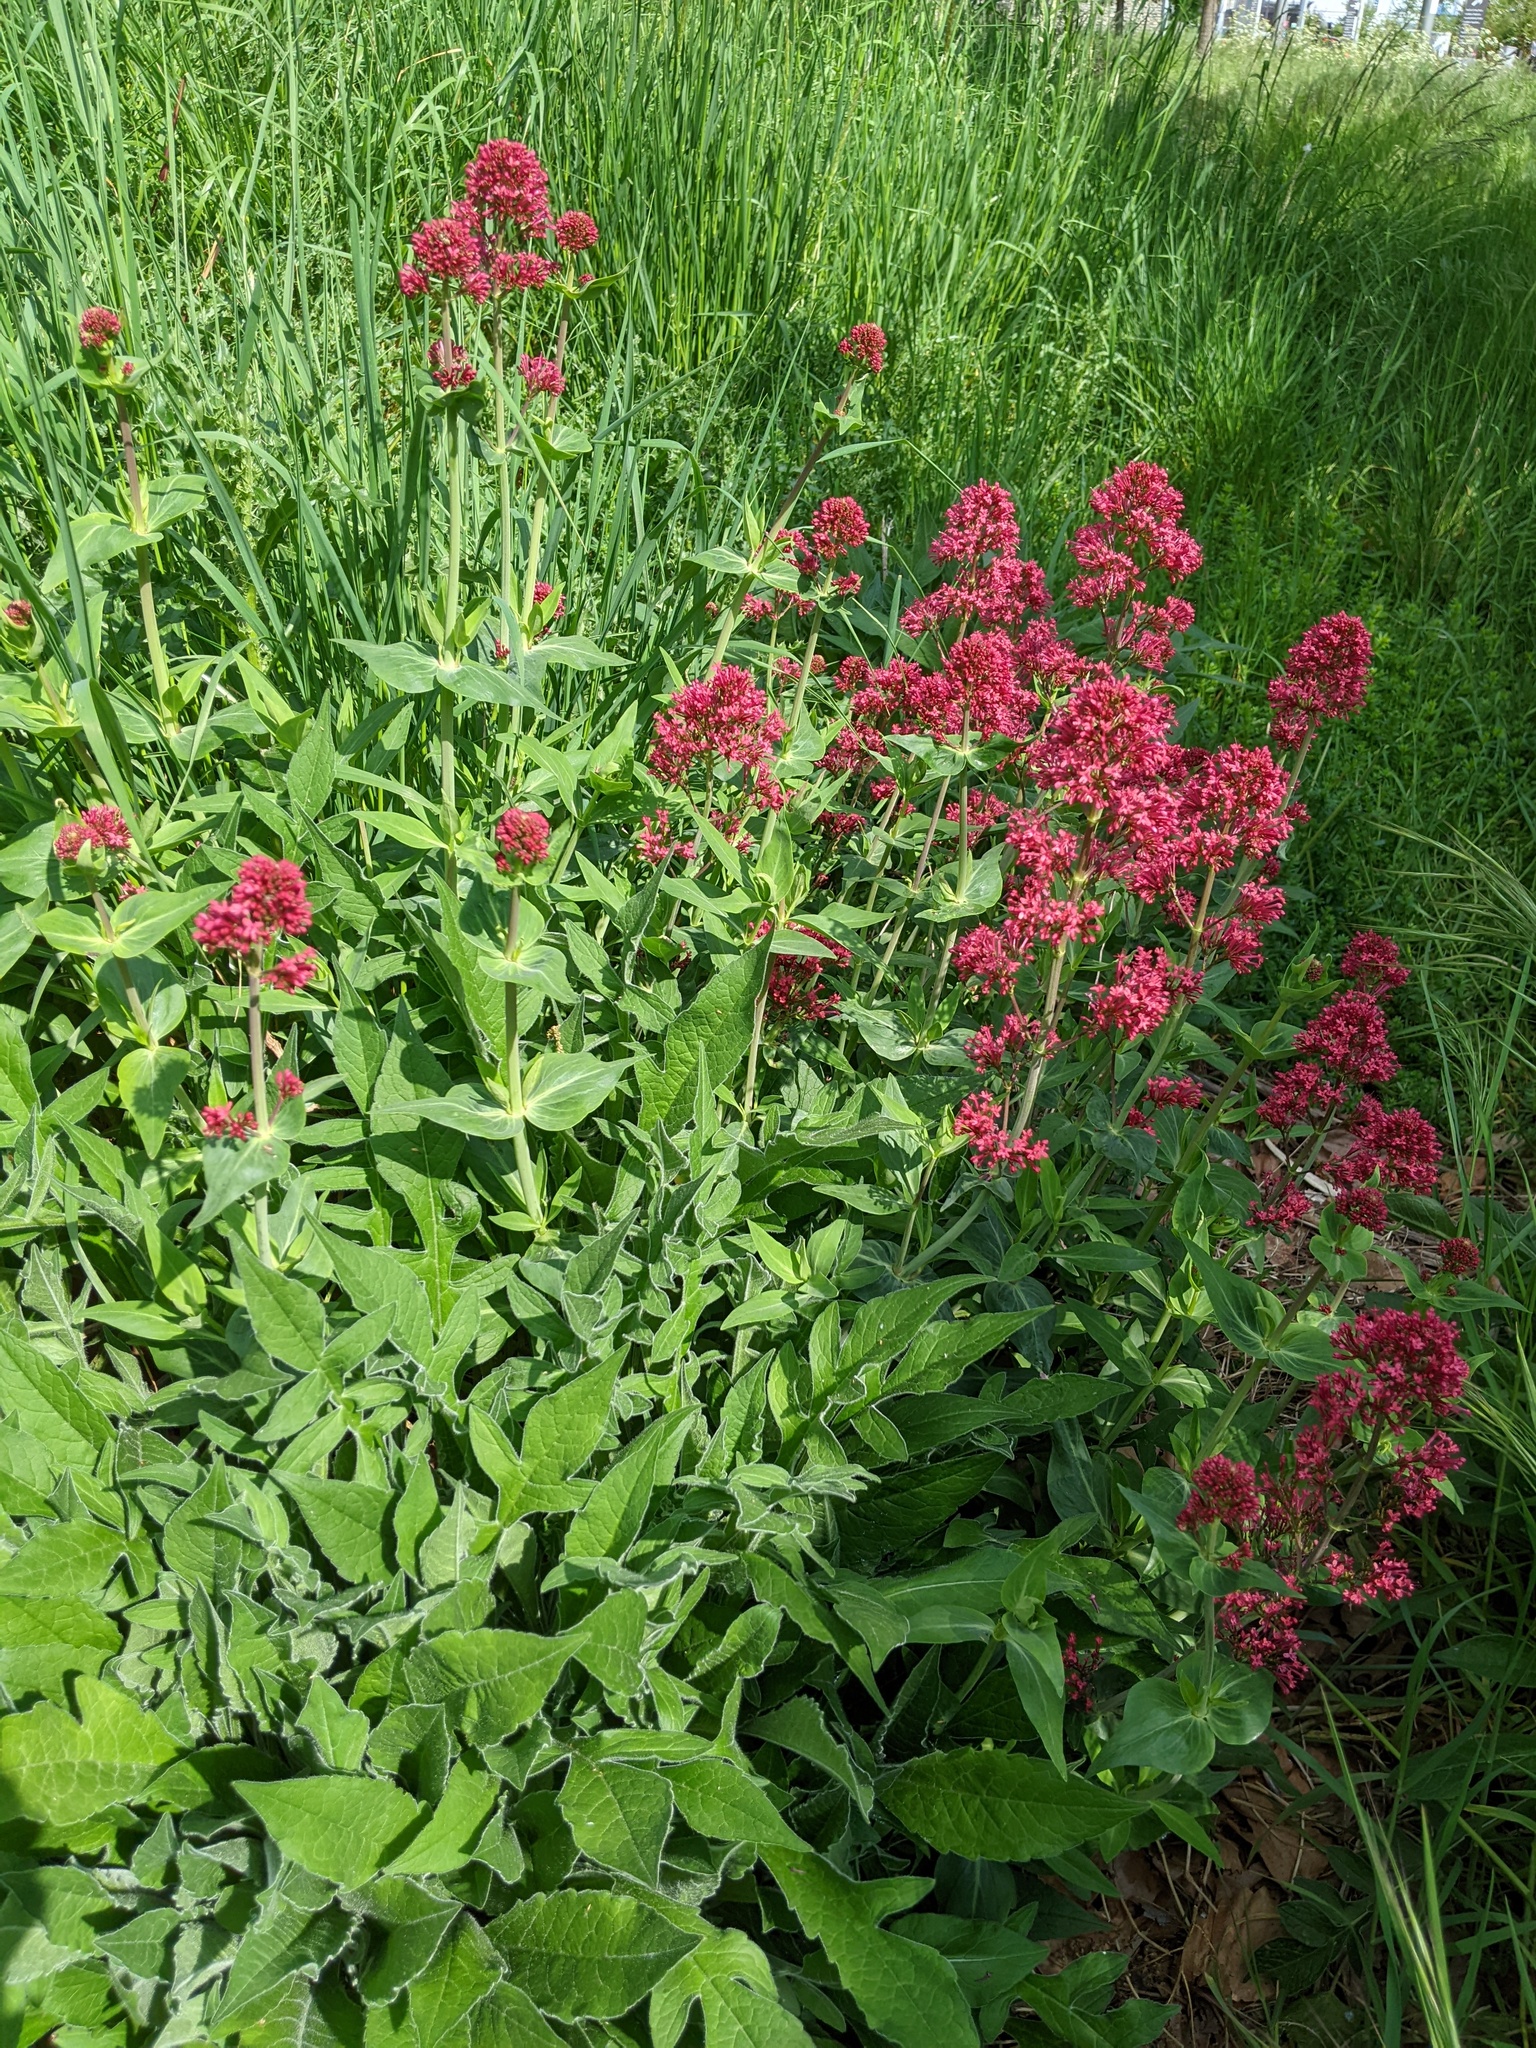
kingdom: Plantae
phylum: Tracheophyta
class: Magnoliopsida
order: Dipsacales
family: Caprifoliaceae
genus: Centranthus
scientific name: Centranthus ruber
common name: Red valerian
